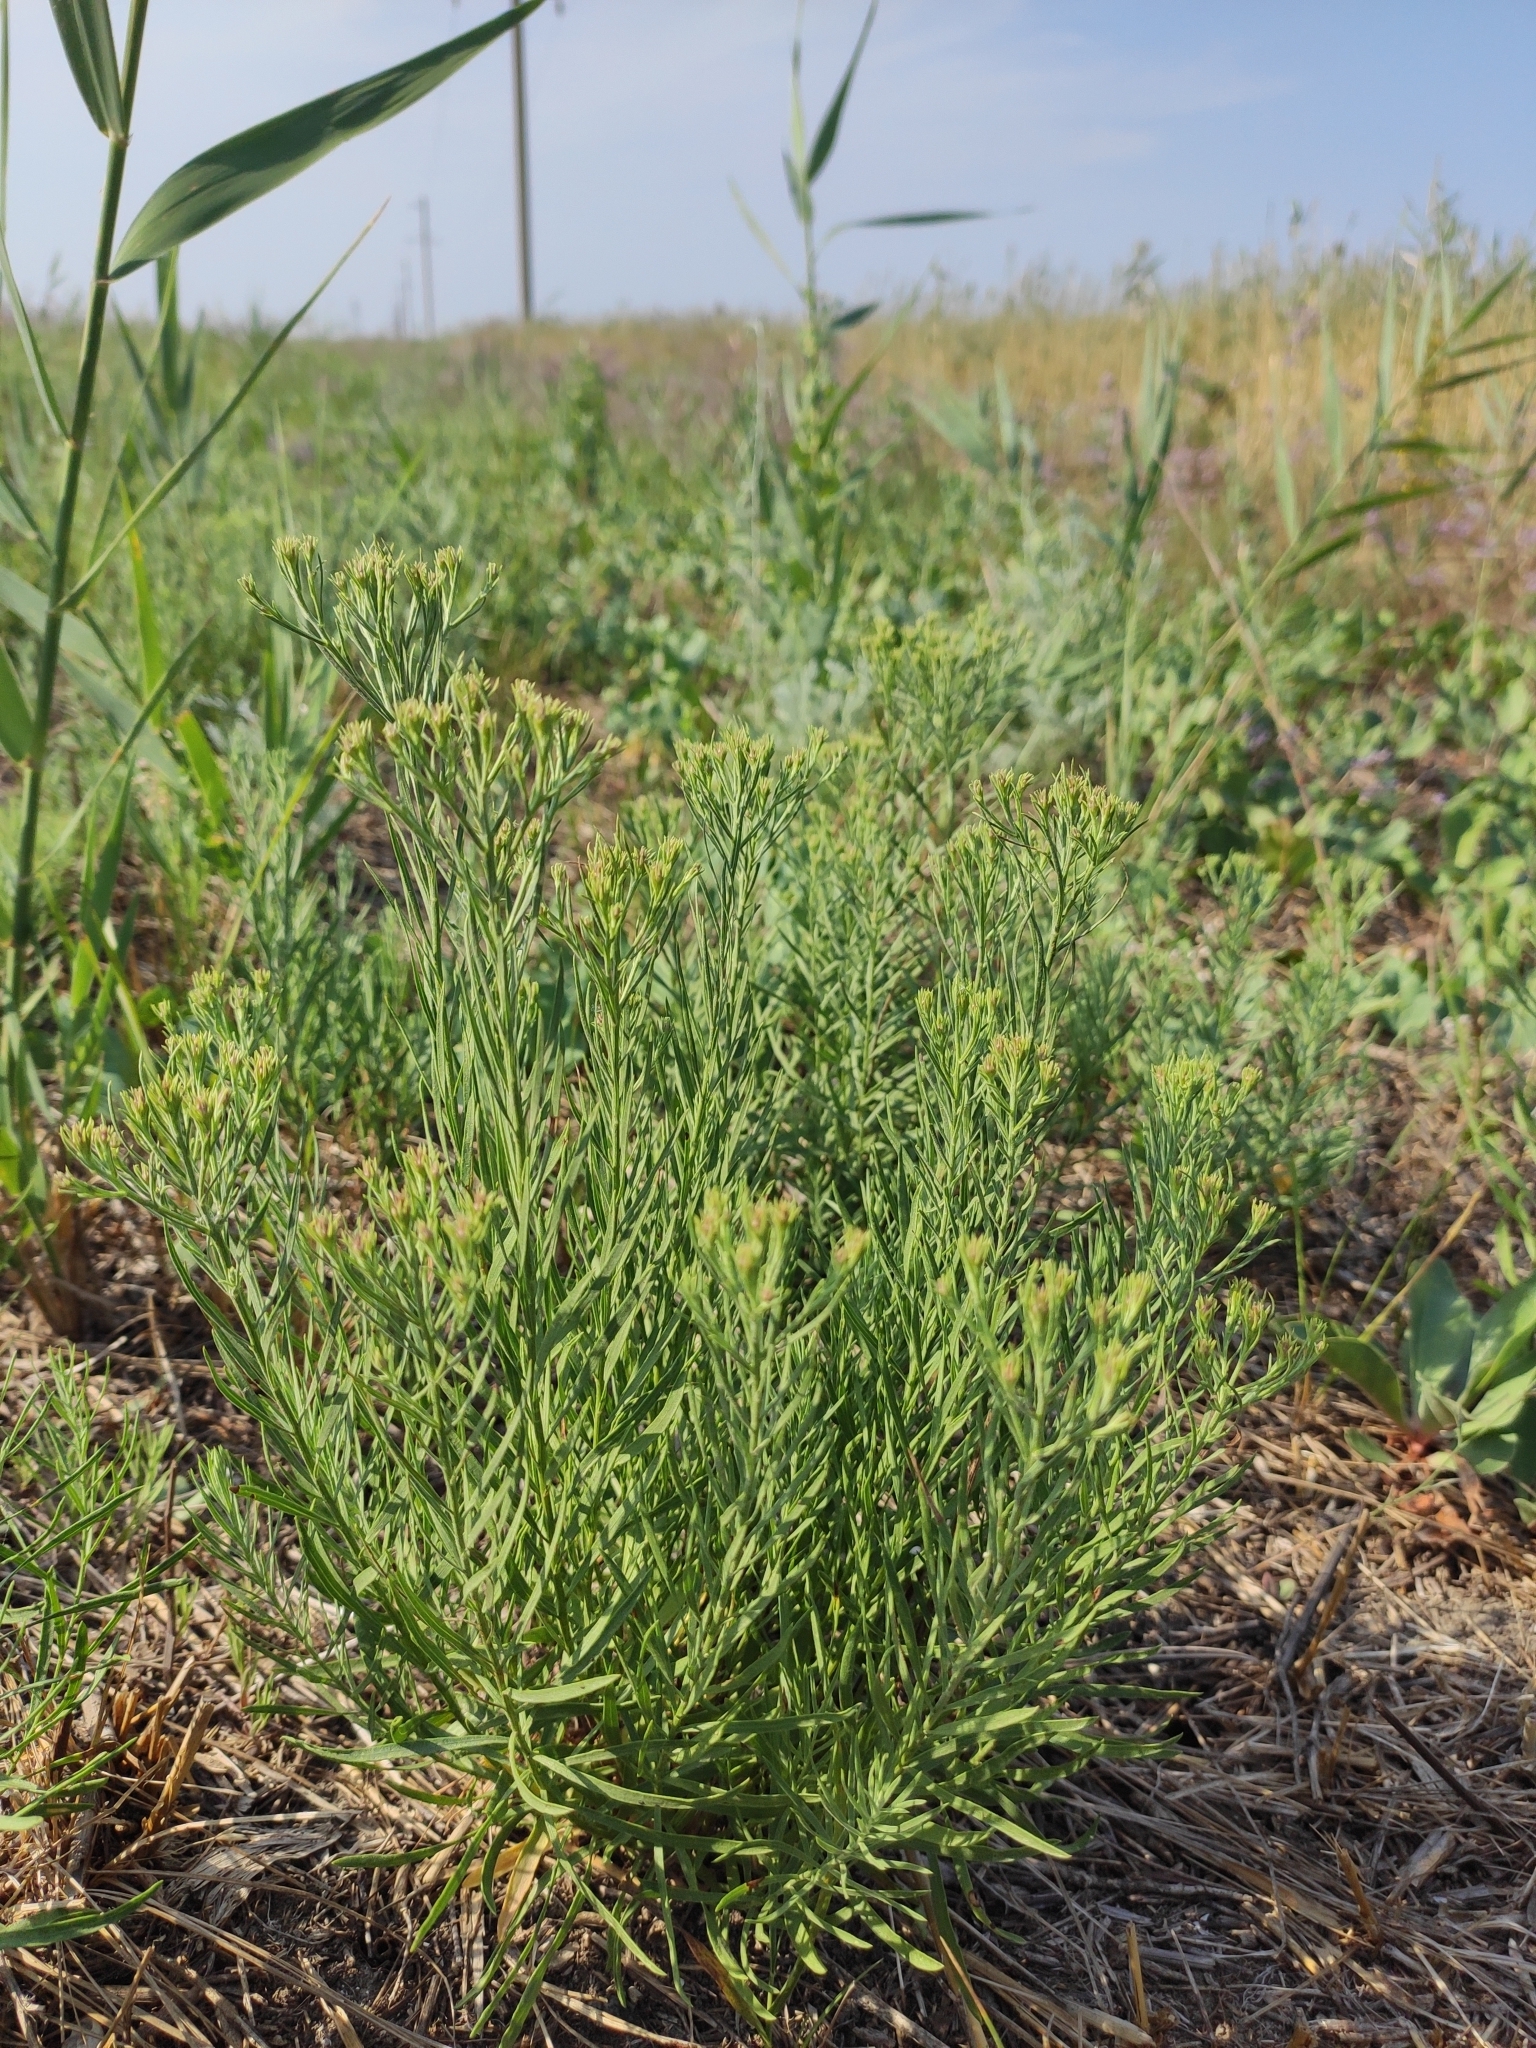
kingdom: Plantae
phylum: Tracheophyta
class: Magnoliopsida
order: Asterales
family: Asteraceae
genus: Galatella
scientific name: Galatella linosyris
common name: Goldilocks aster
